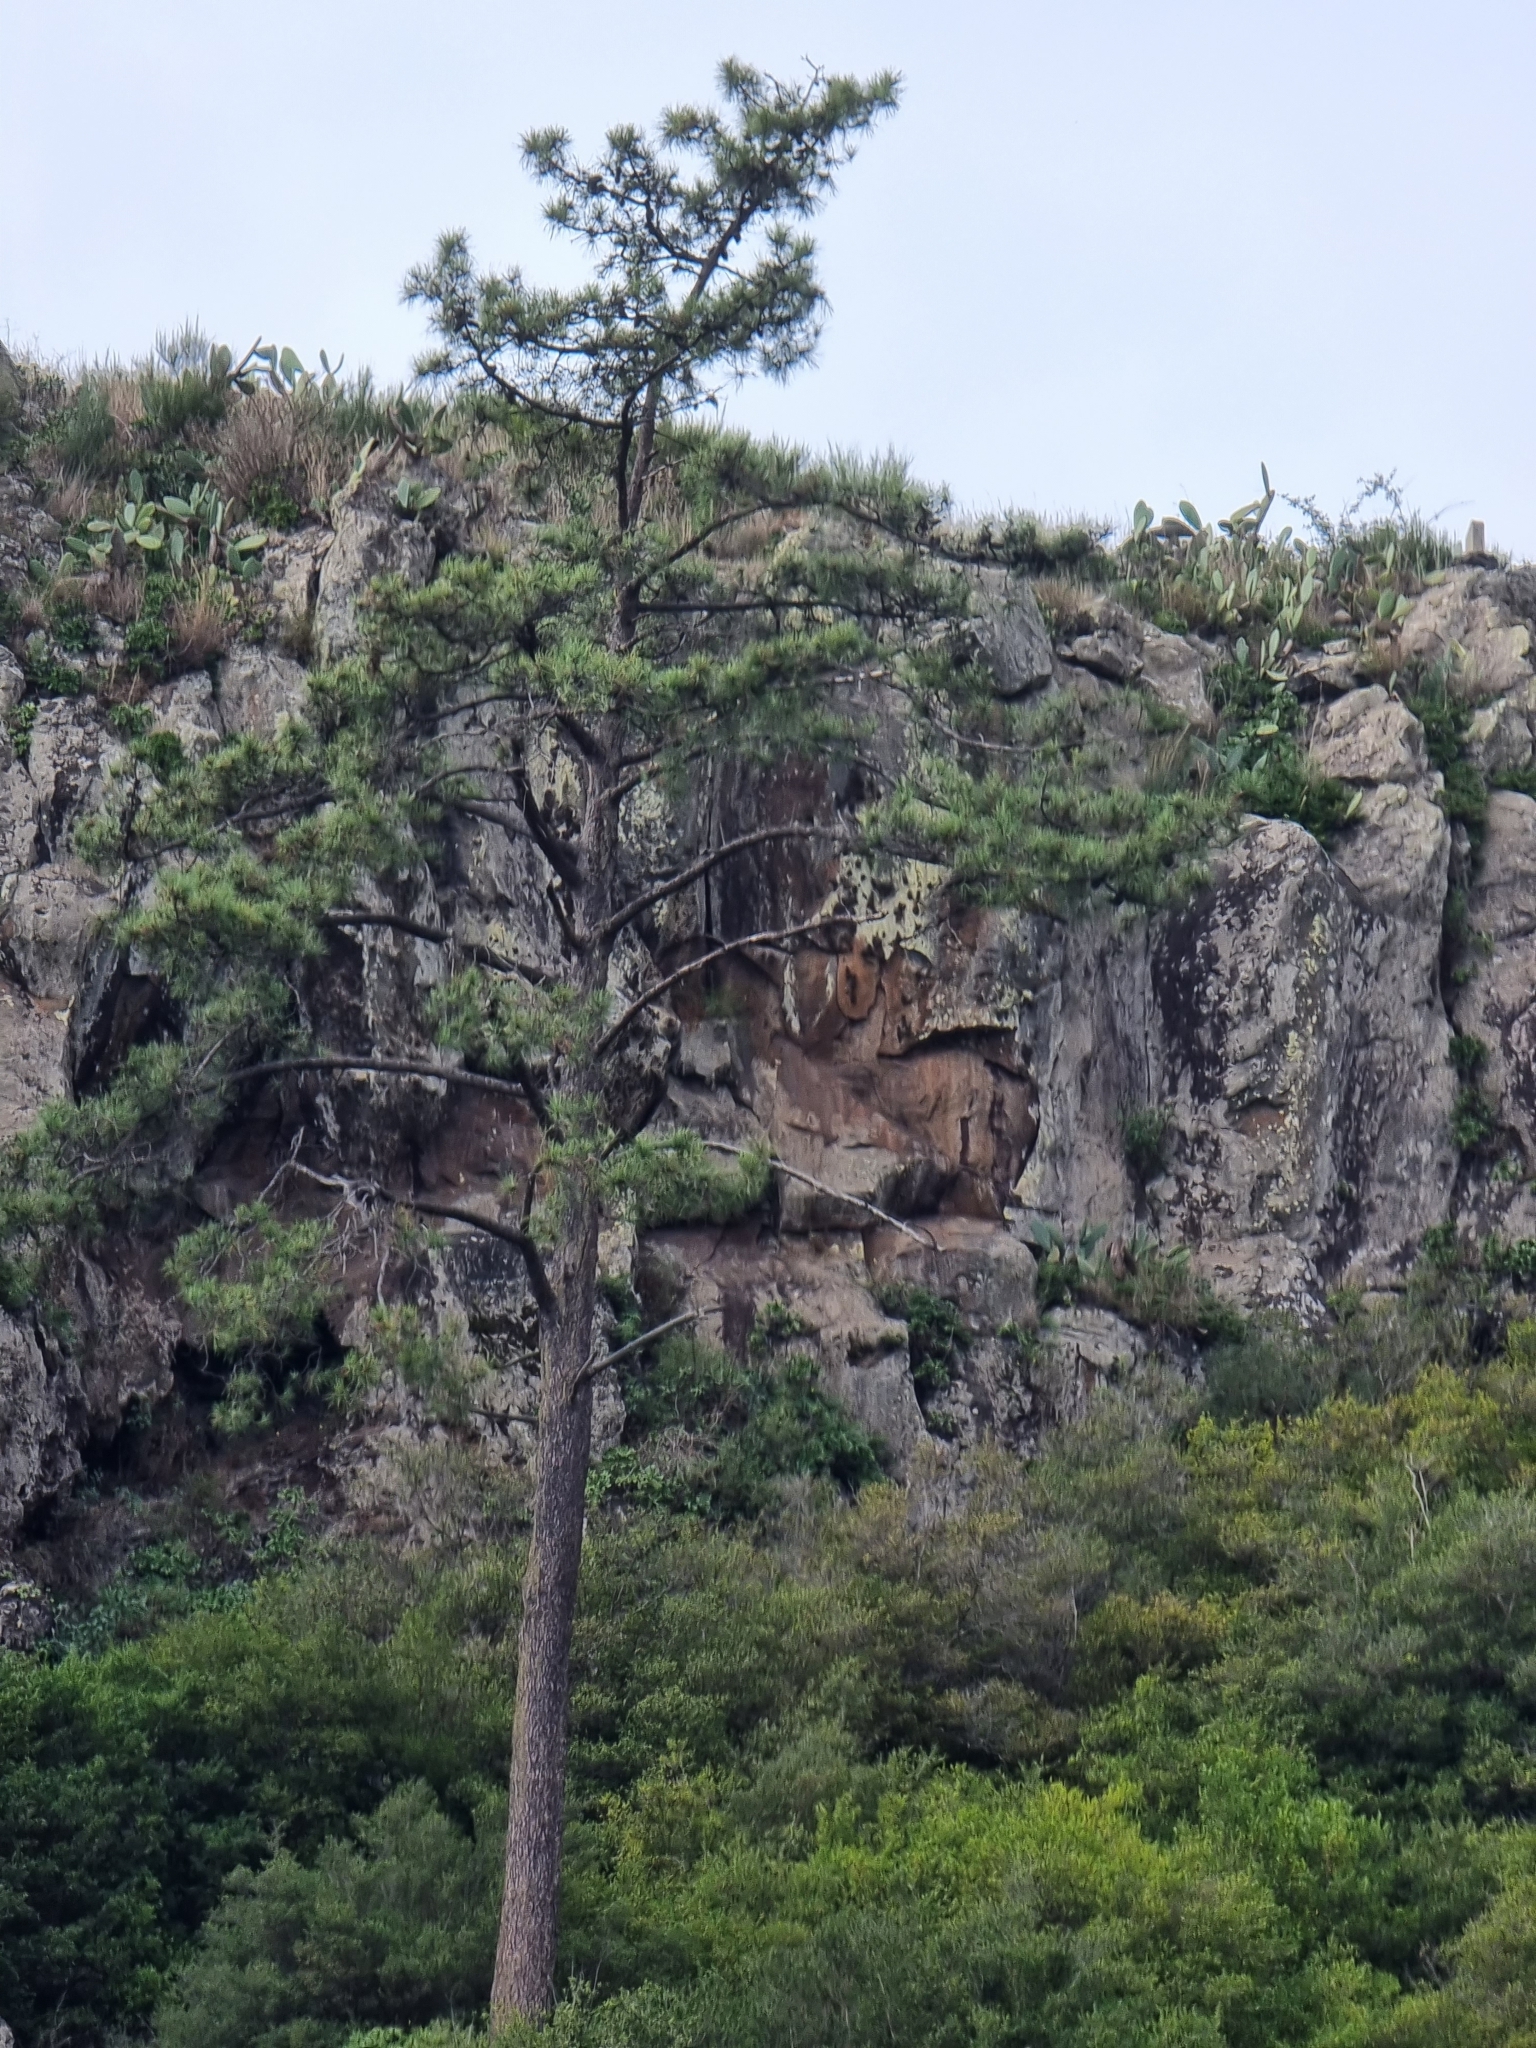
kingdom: Plantae
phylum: Tracheophyta
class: Pinopsida
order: Pinales
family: Pinaceae
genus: Pinus
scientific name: Pinus pinaster
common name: Maritime pine
